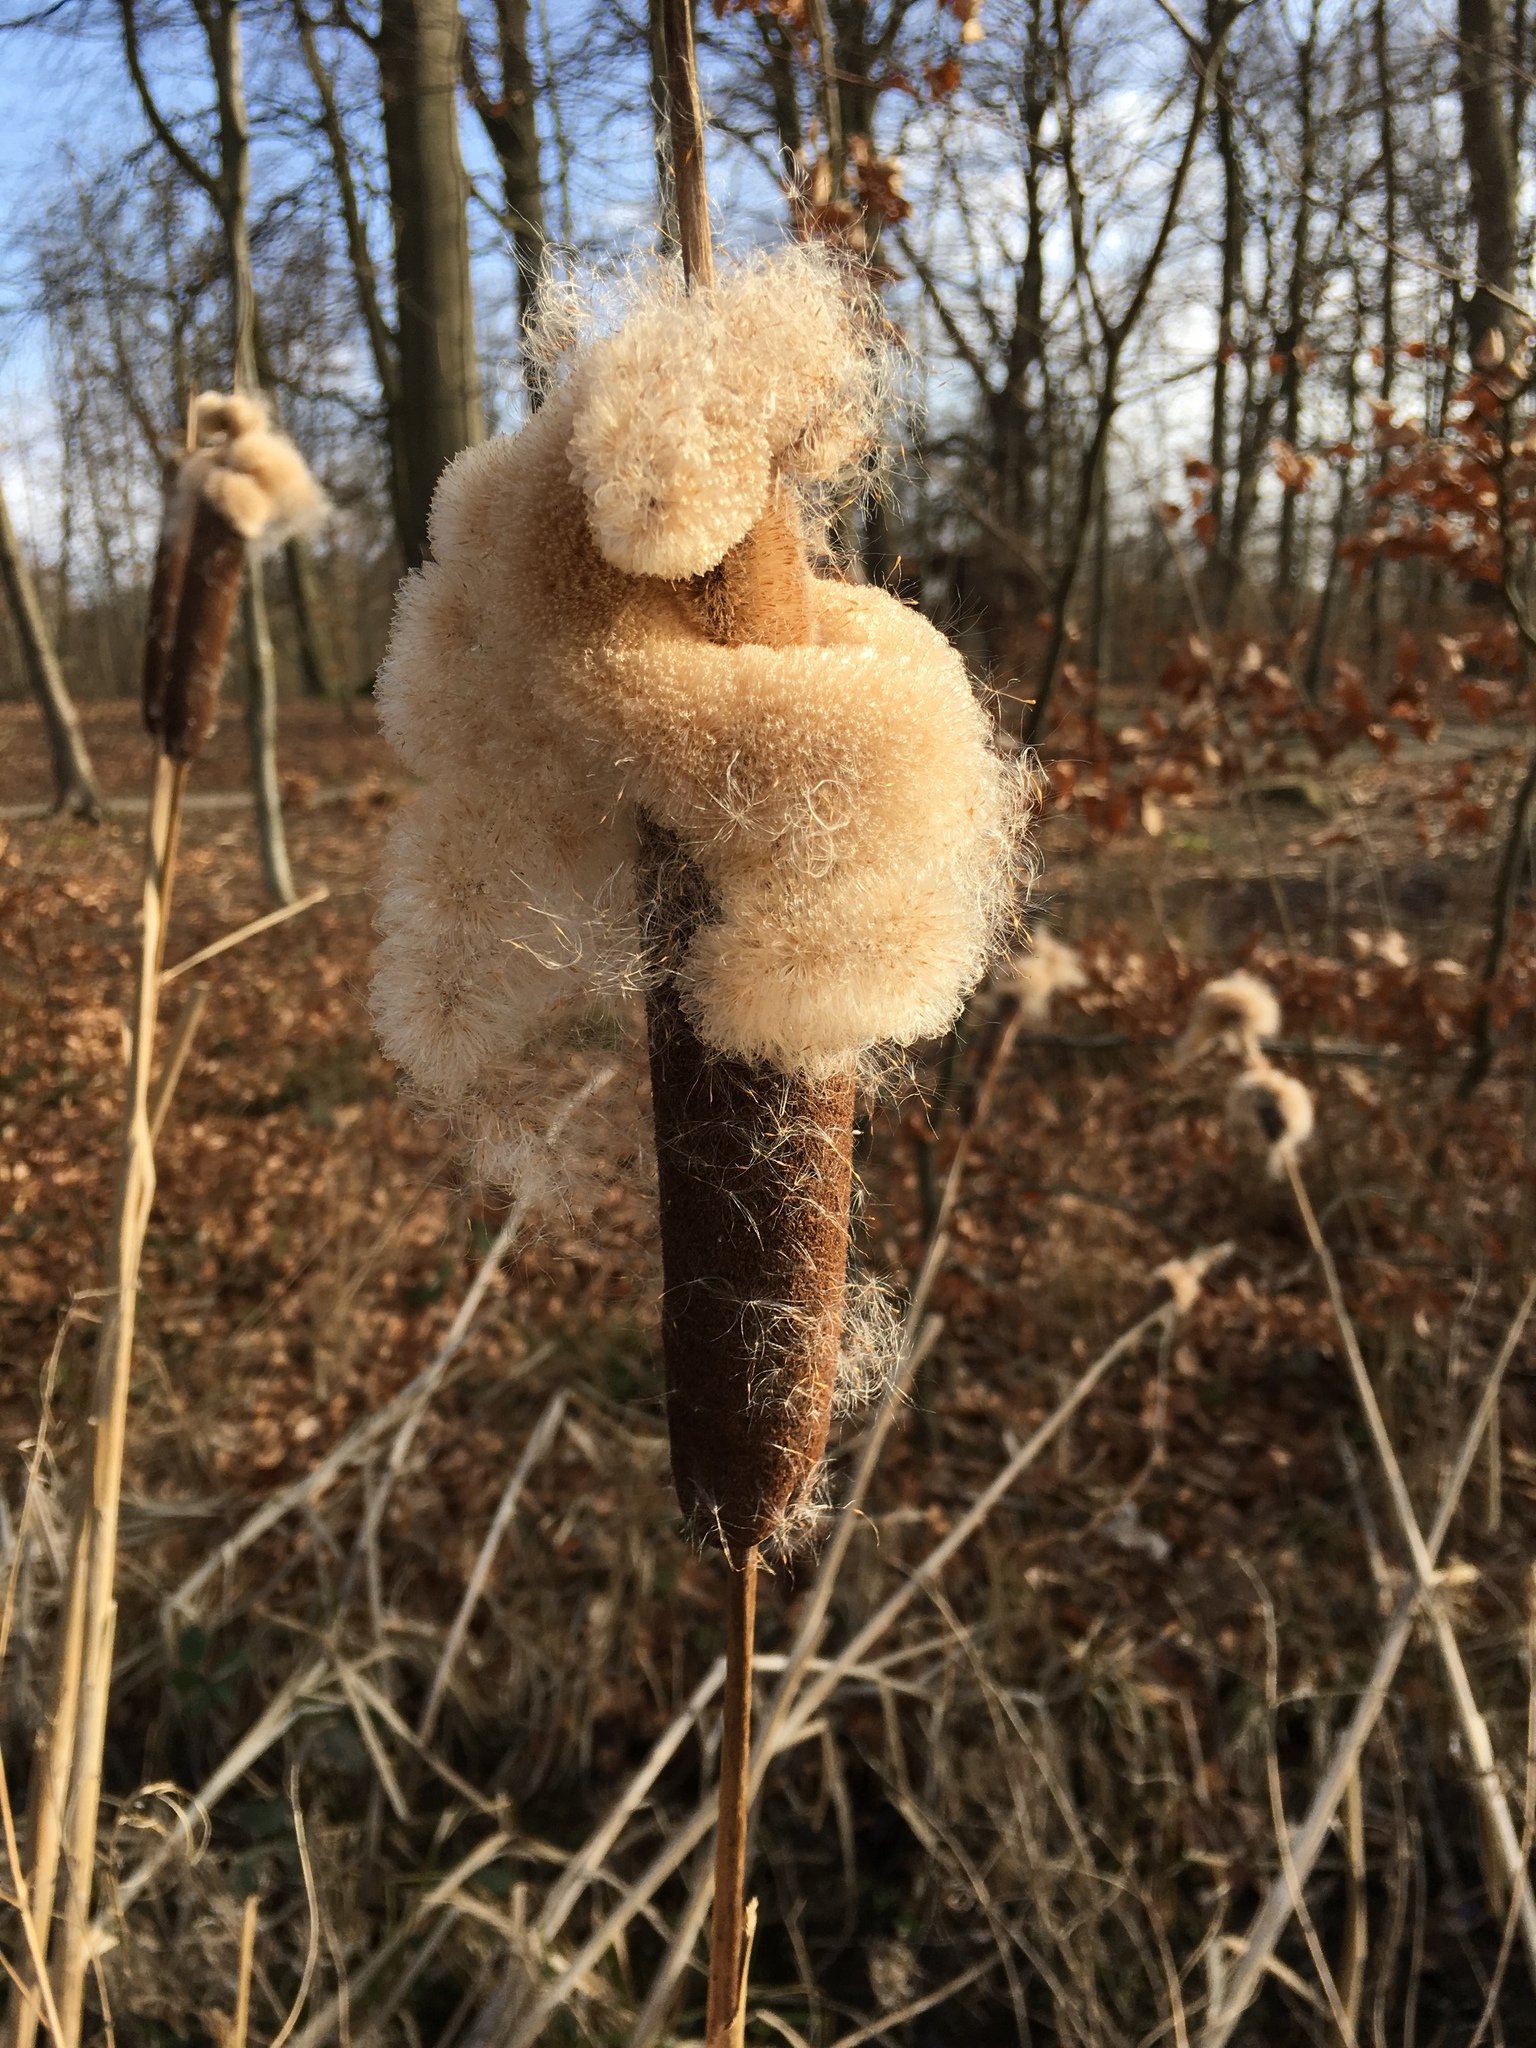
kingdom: Plantae
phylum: Tracheophyta
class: Liliopsida
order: Poales
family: Typhaceae
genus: Typha
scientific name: Typha latifolia
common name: Broadleaf cattail
